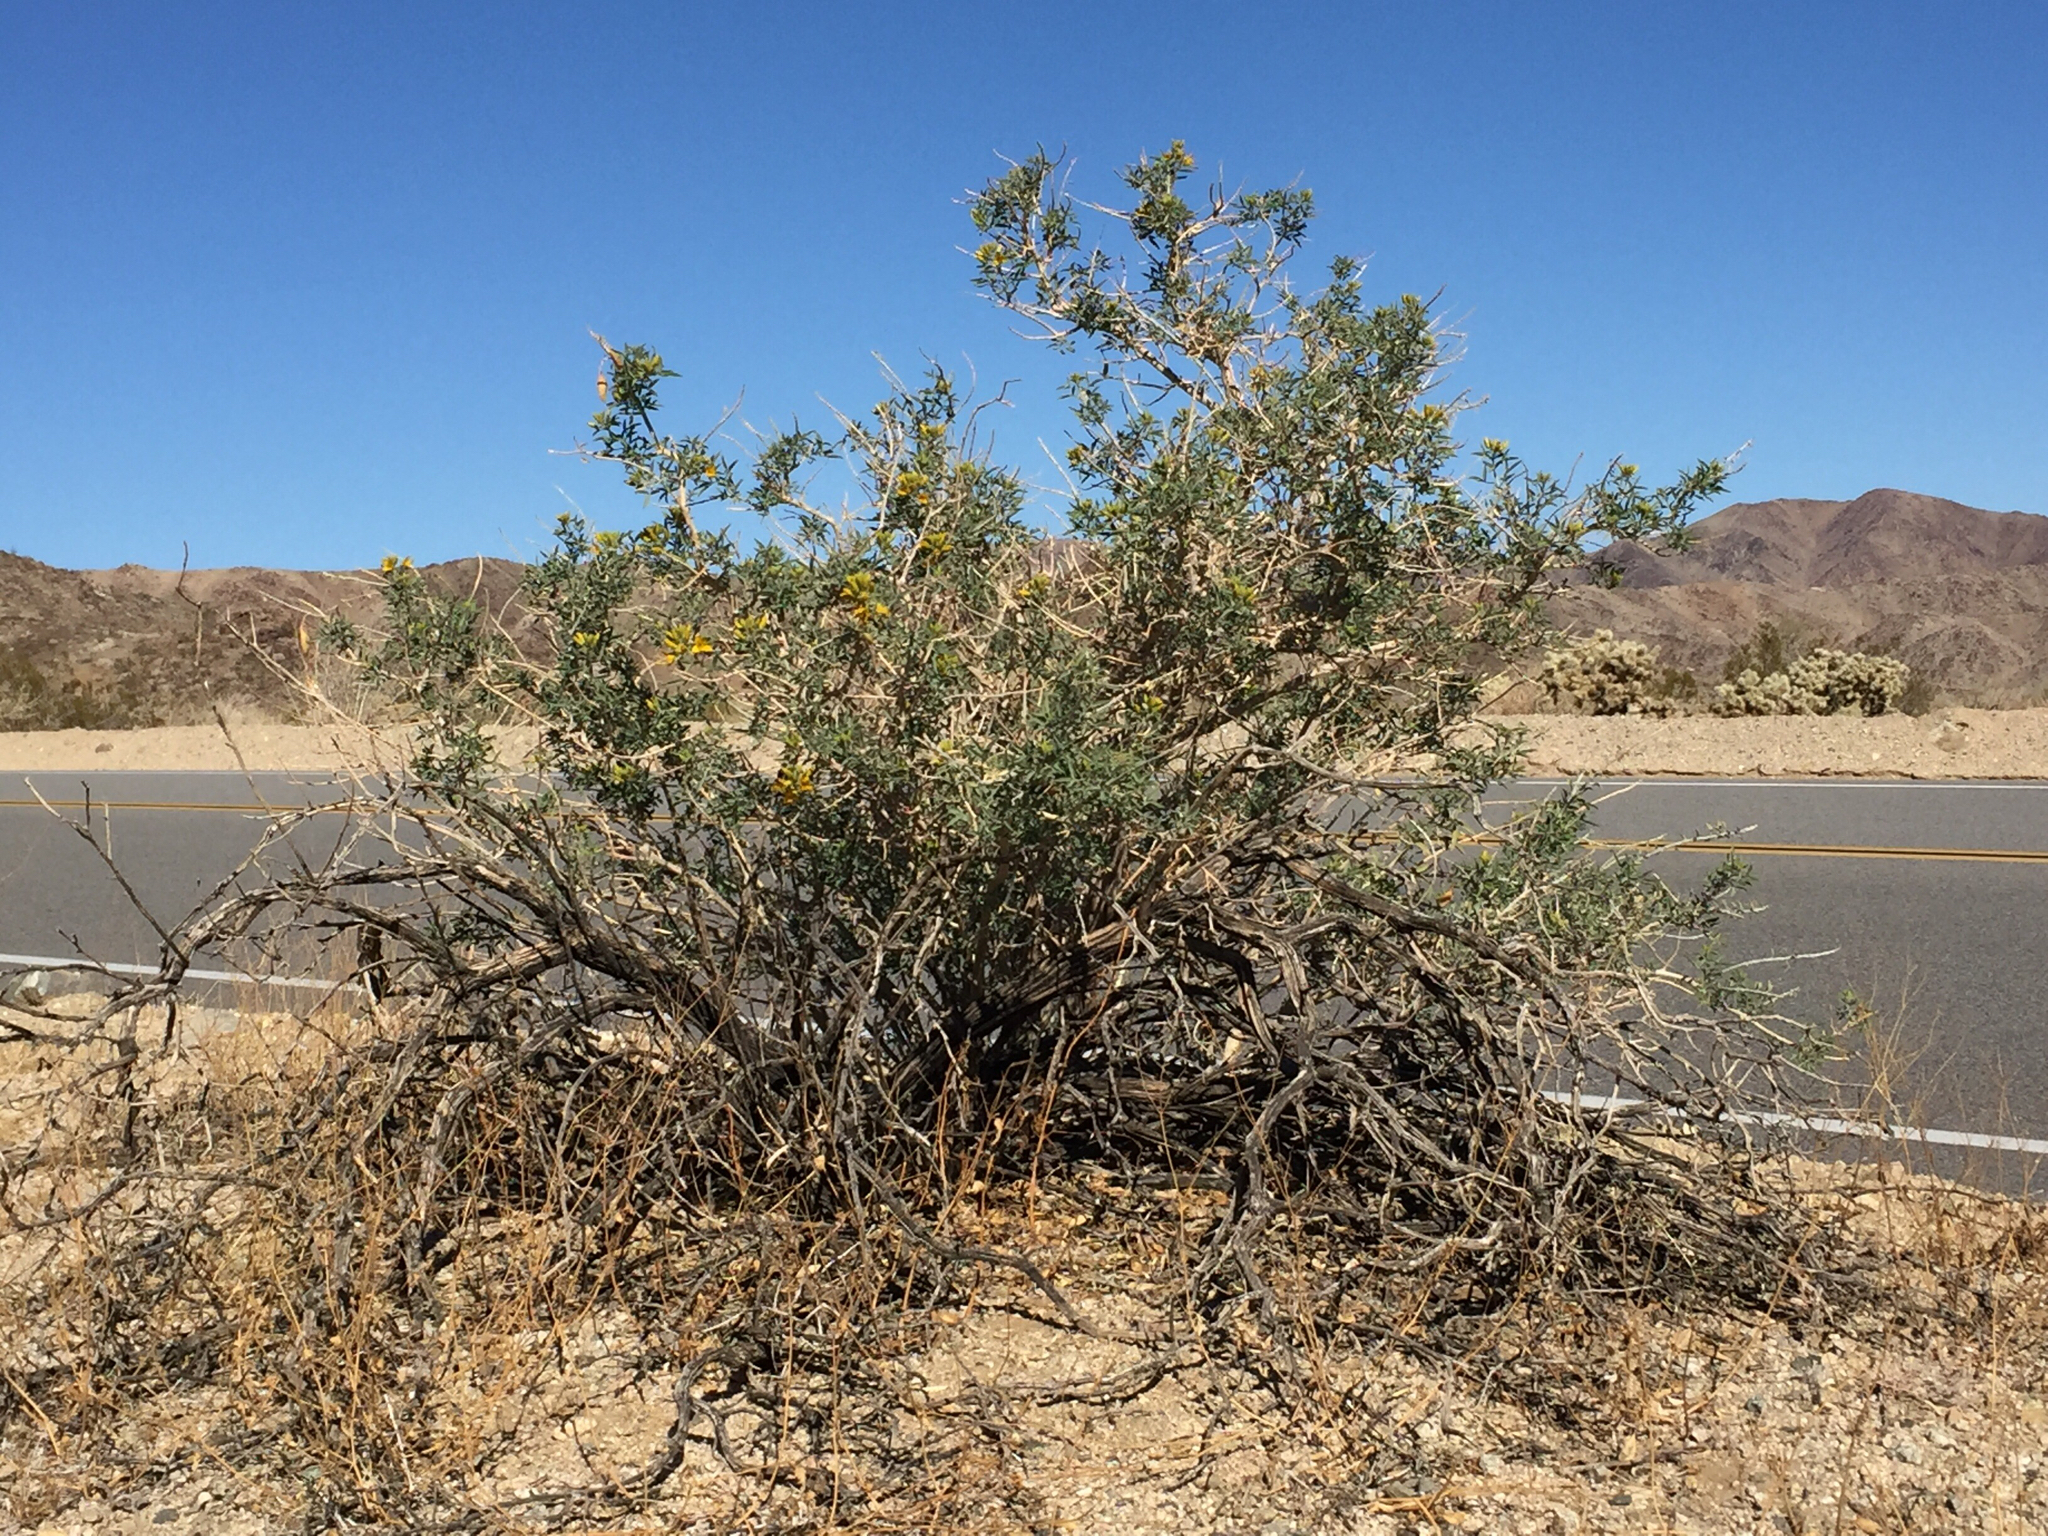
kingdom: Plantae
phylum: Tracheophyta
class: Magnoliopsida
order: Brassicales
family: Cleomaceae
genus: Cleomella
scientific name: Cleomella arborea
